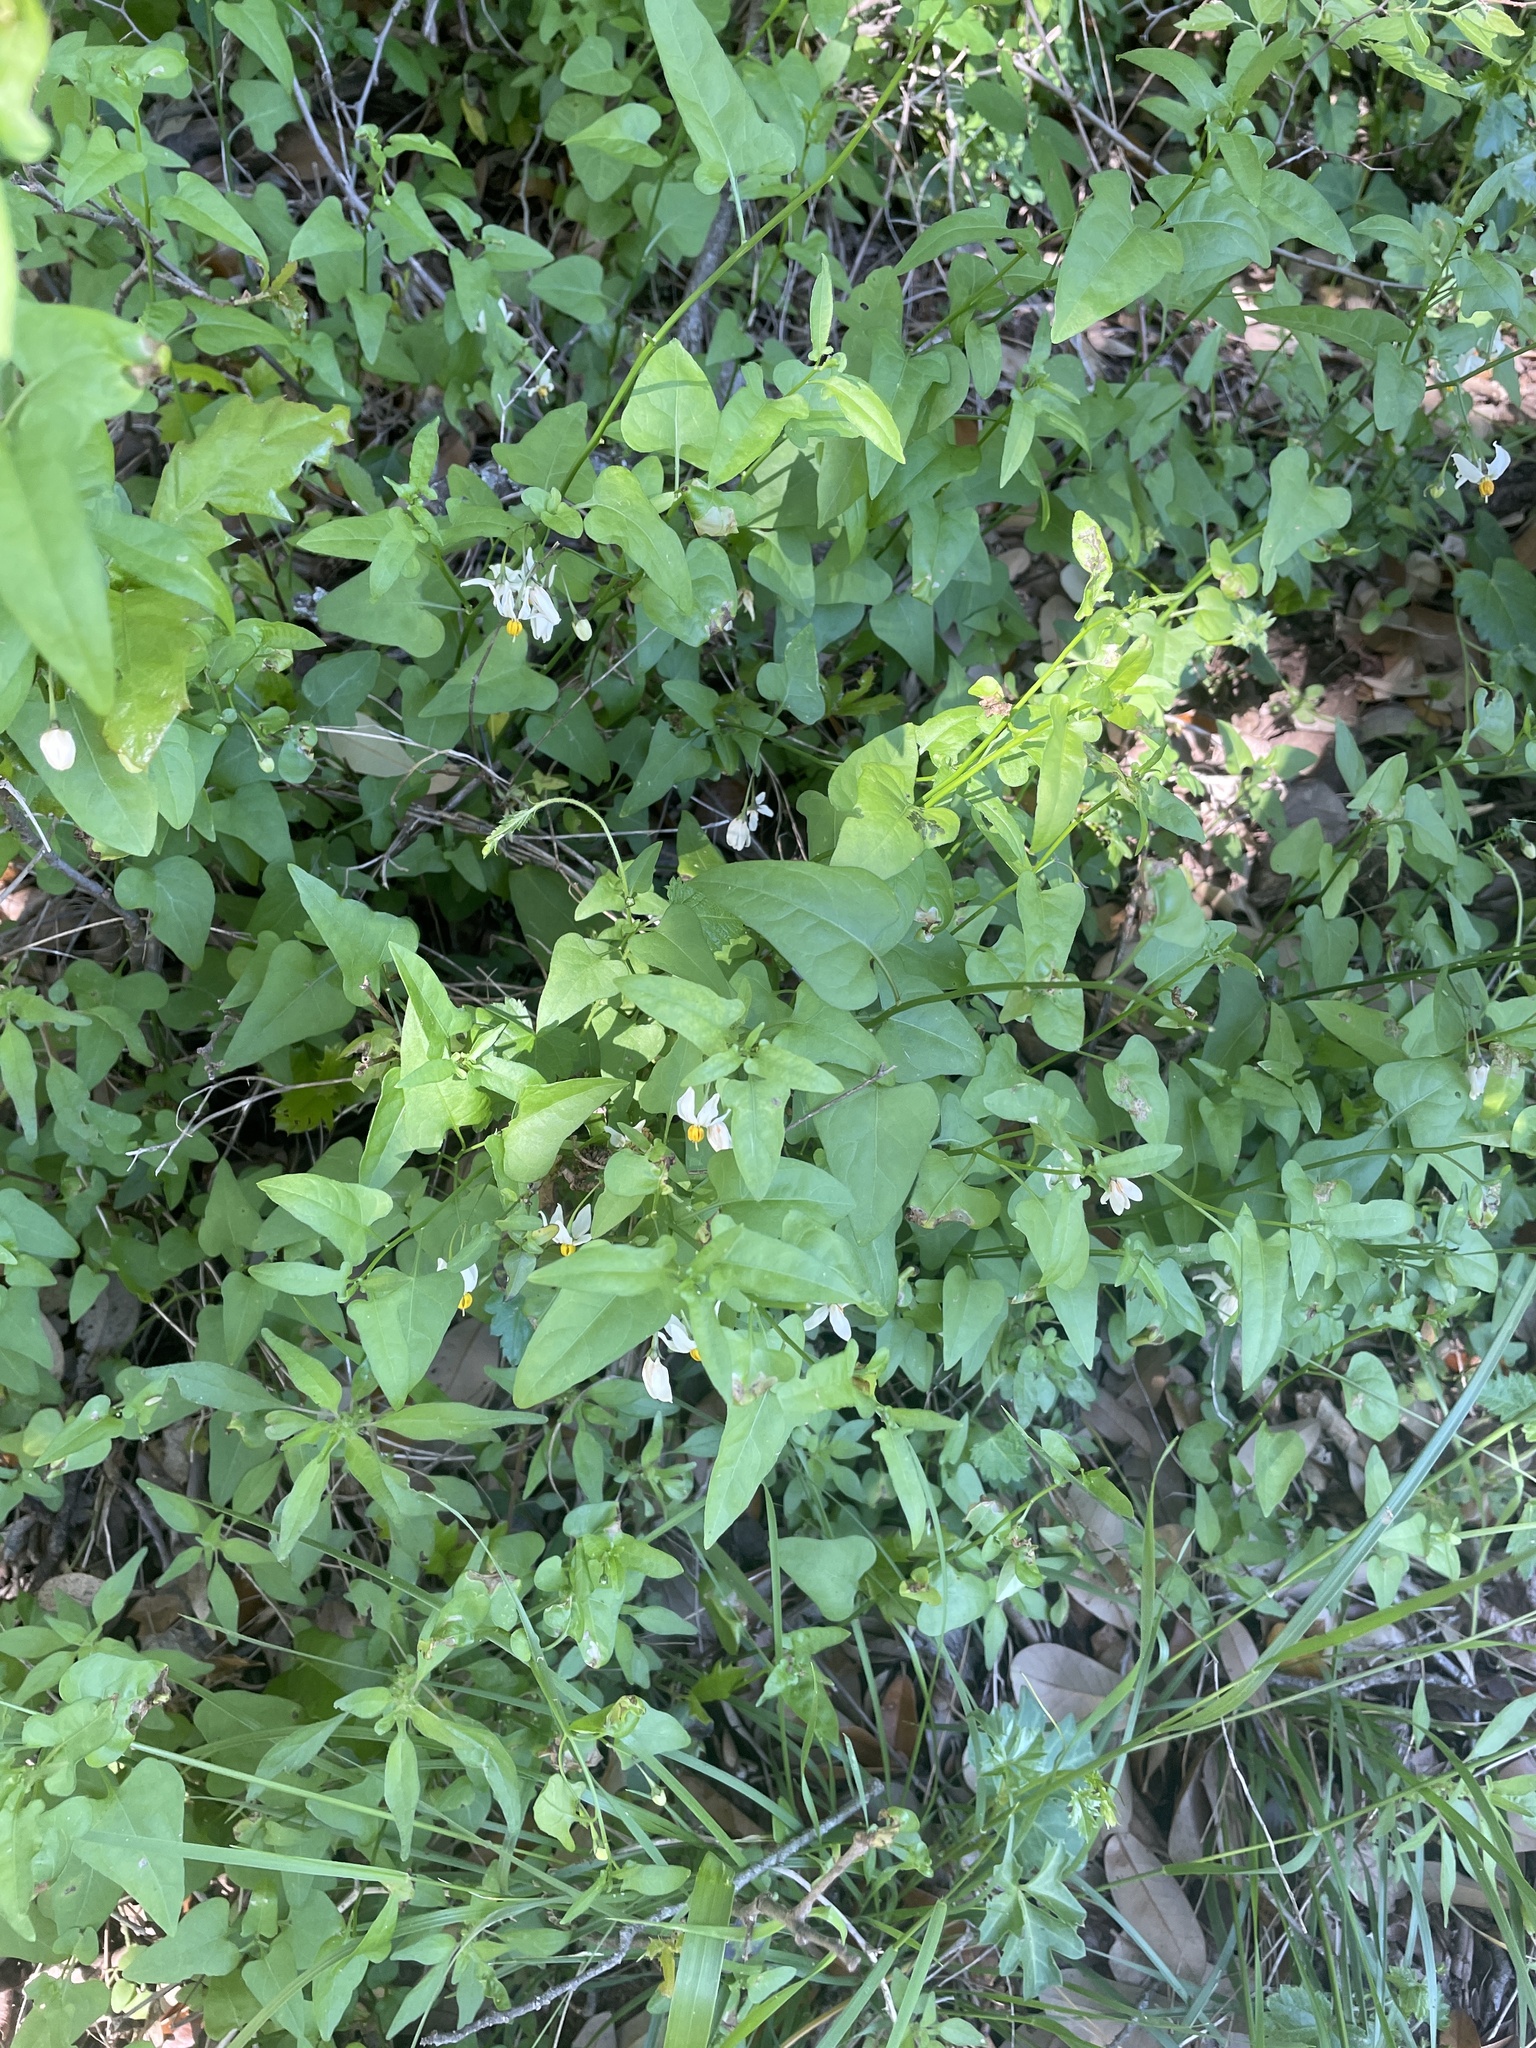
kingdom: Plantae
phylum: Tracheophyta
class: Magnoliopsida
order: Solanales
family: Solanaceae
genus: Solanum
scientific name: Solanum triquetrum
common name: Texas nightshade
